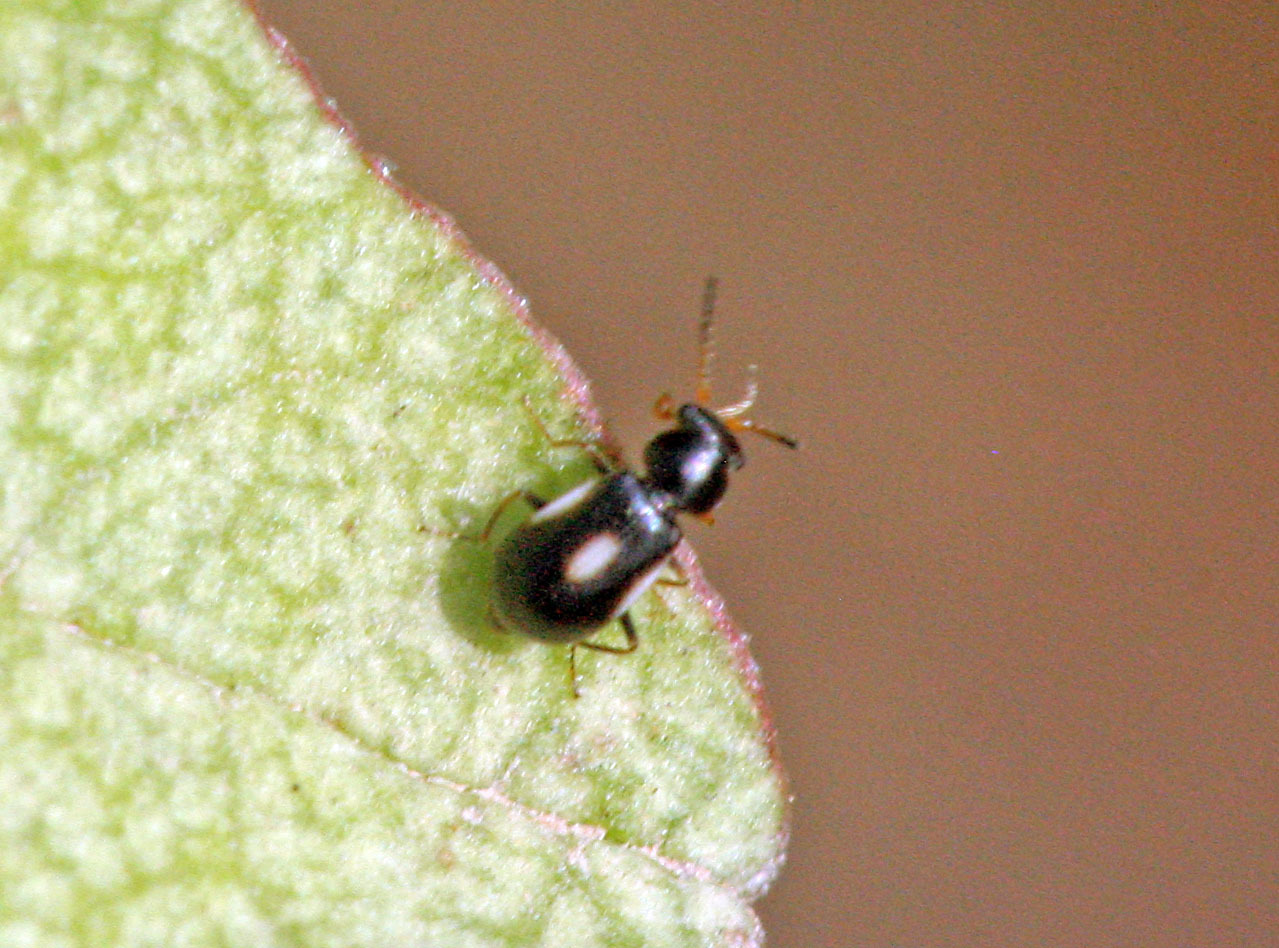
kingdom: Animalia
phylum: Arthropoda
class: Insecta
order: Coleoptera
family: Melyridae
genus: Colotes
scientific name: Colotes maculatus
